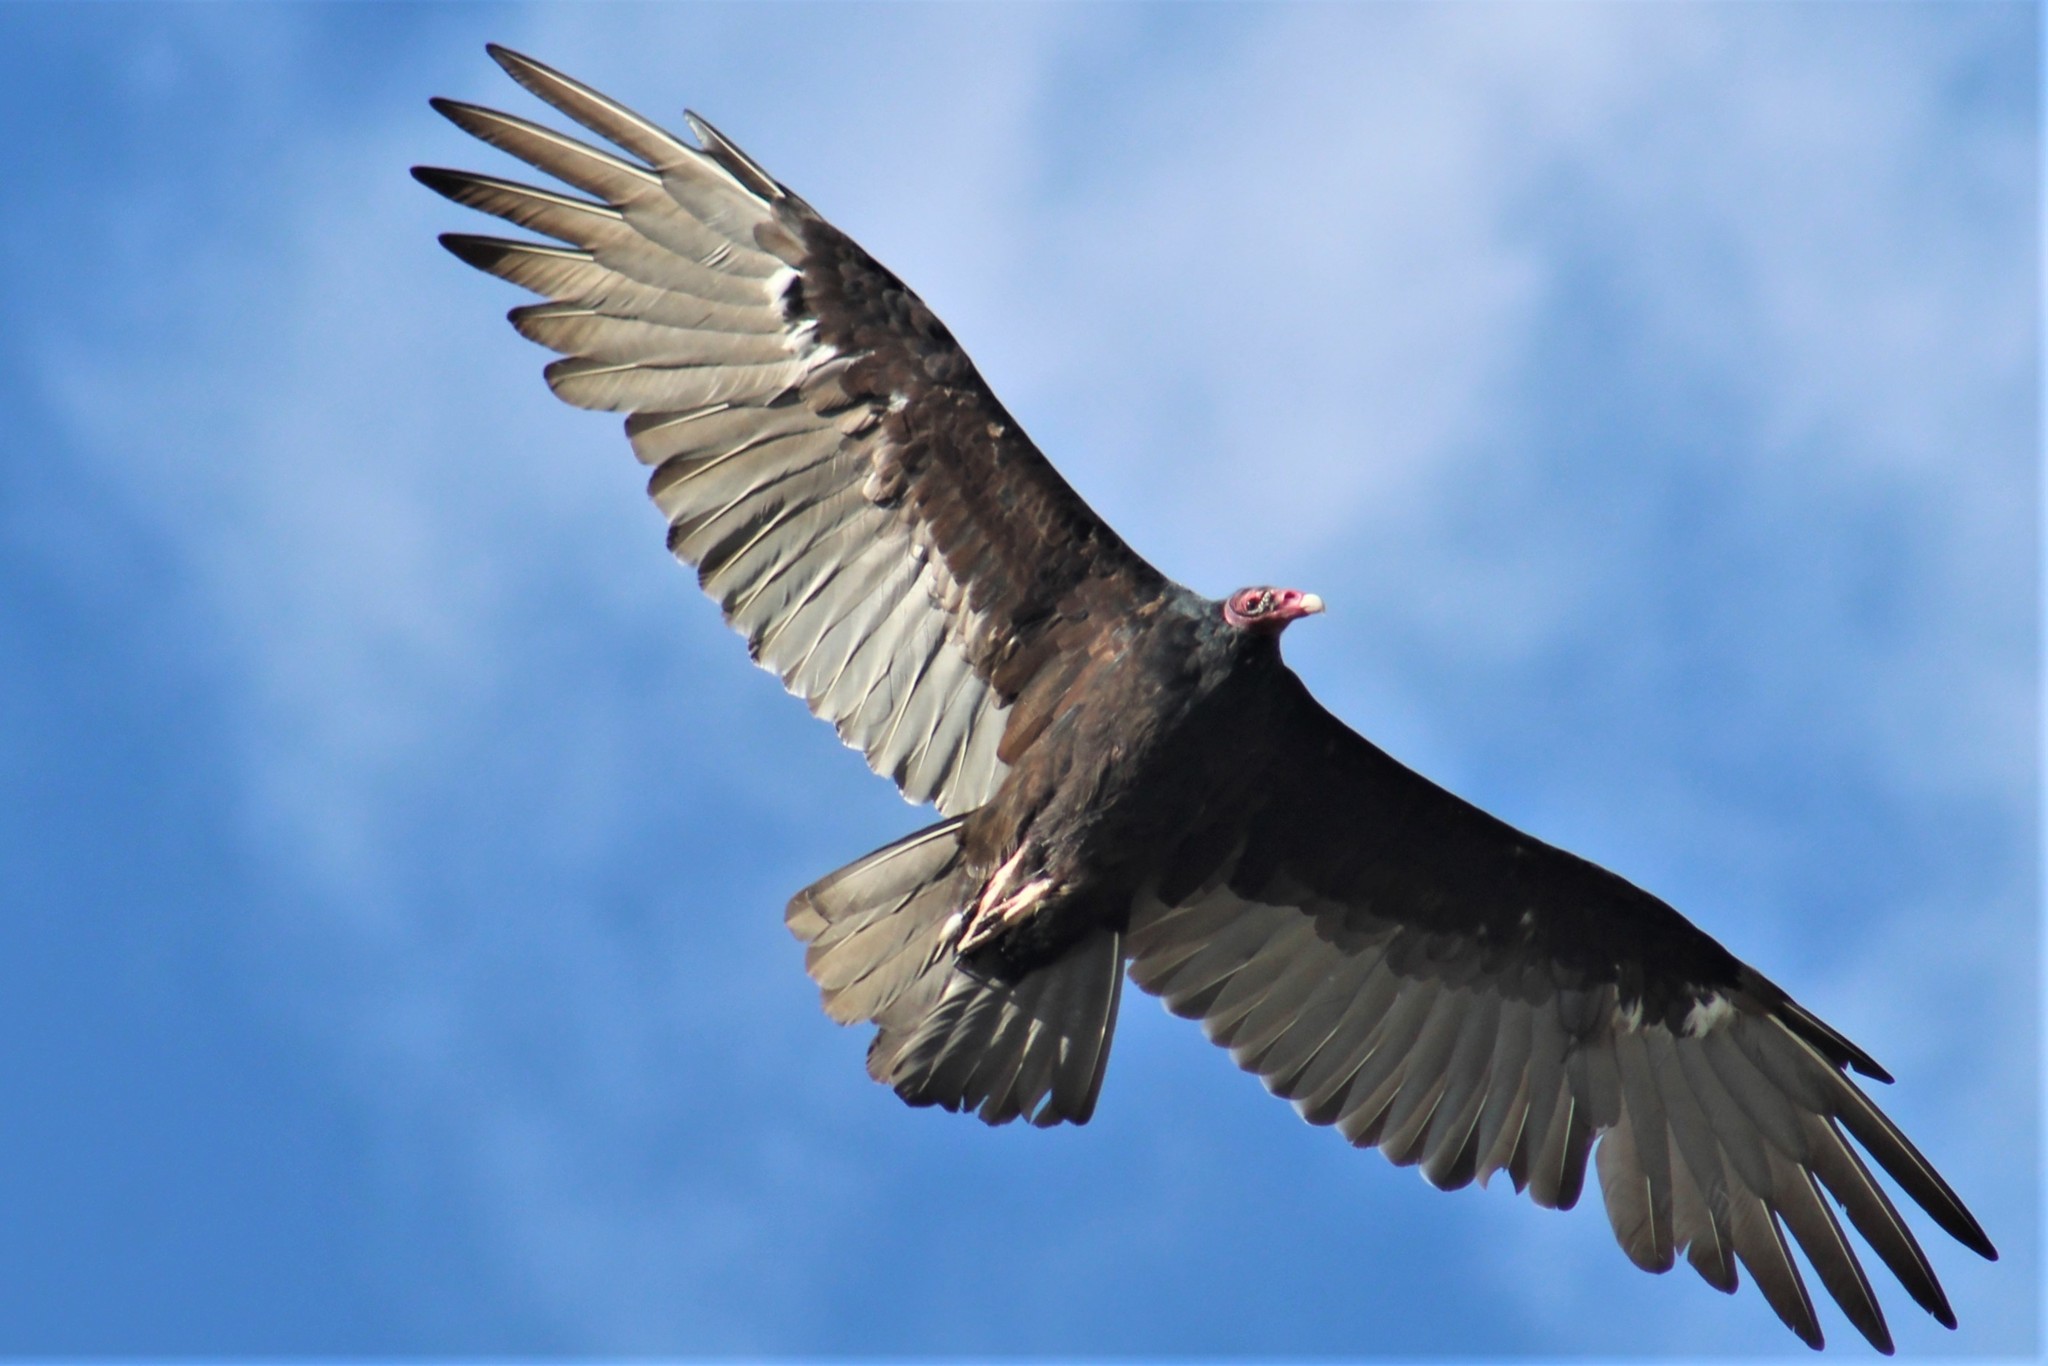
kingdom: Animalia
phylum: Chordata
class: Aves
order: Accipitriformes
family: Cathartidae
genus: Cathartes
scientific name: Cathartes aura
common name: Turkey vulture
